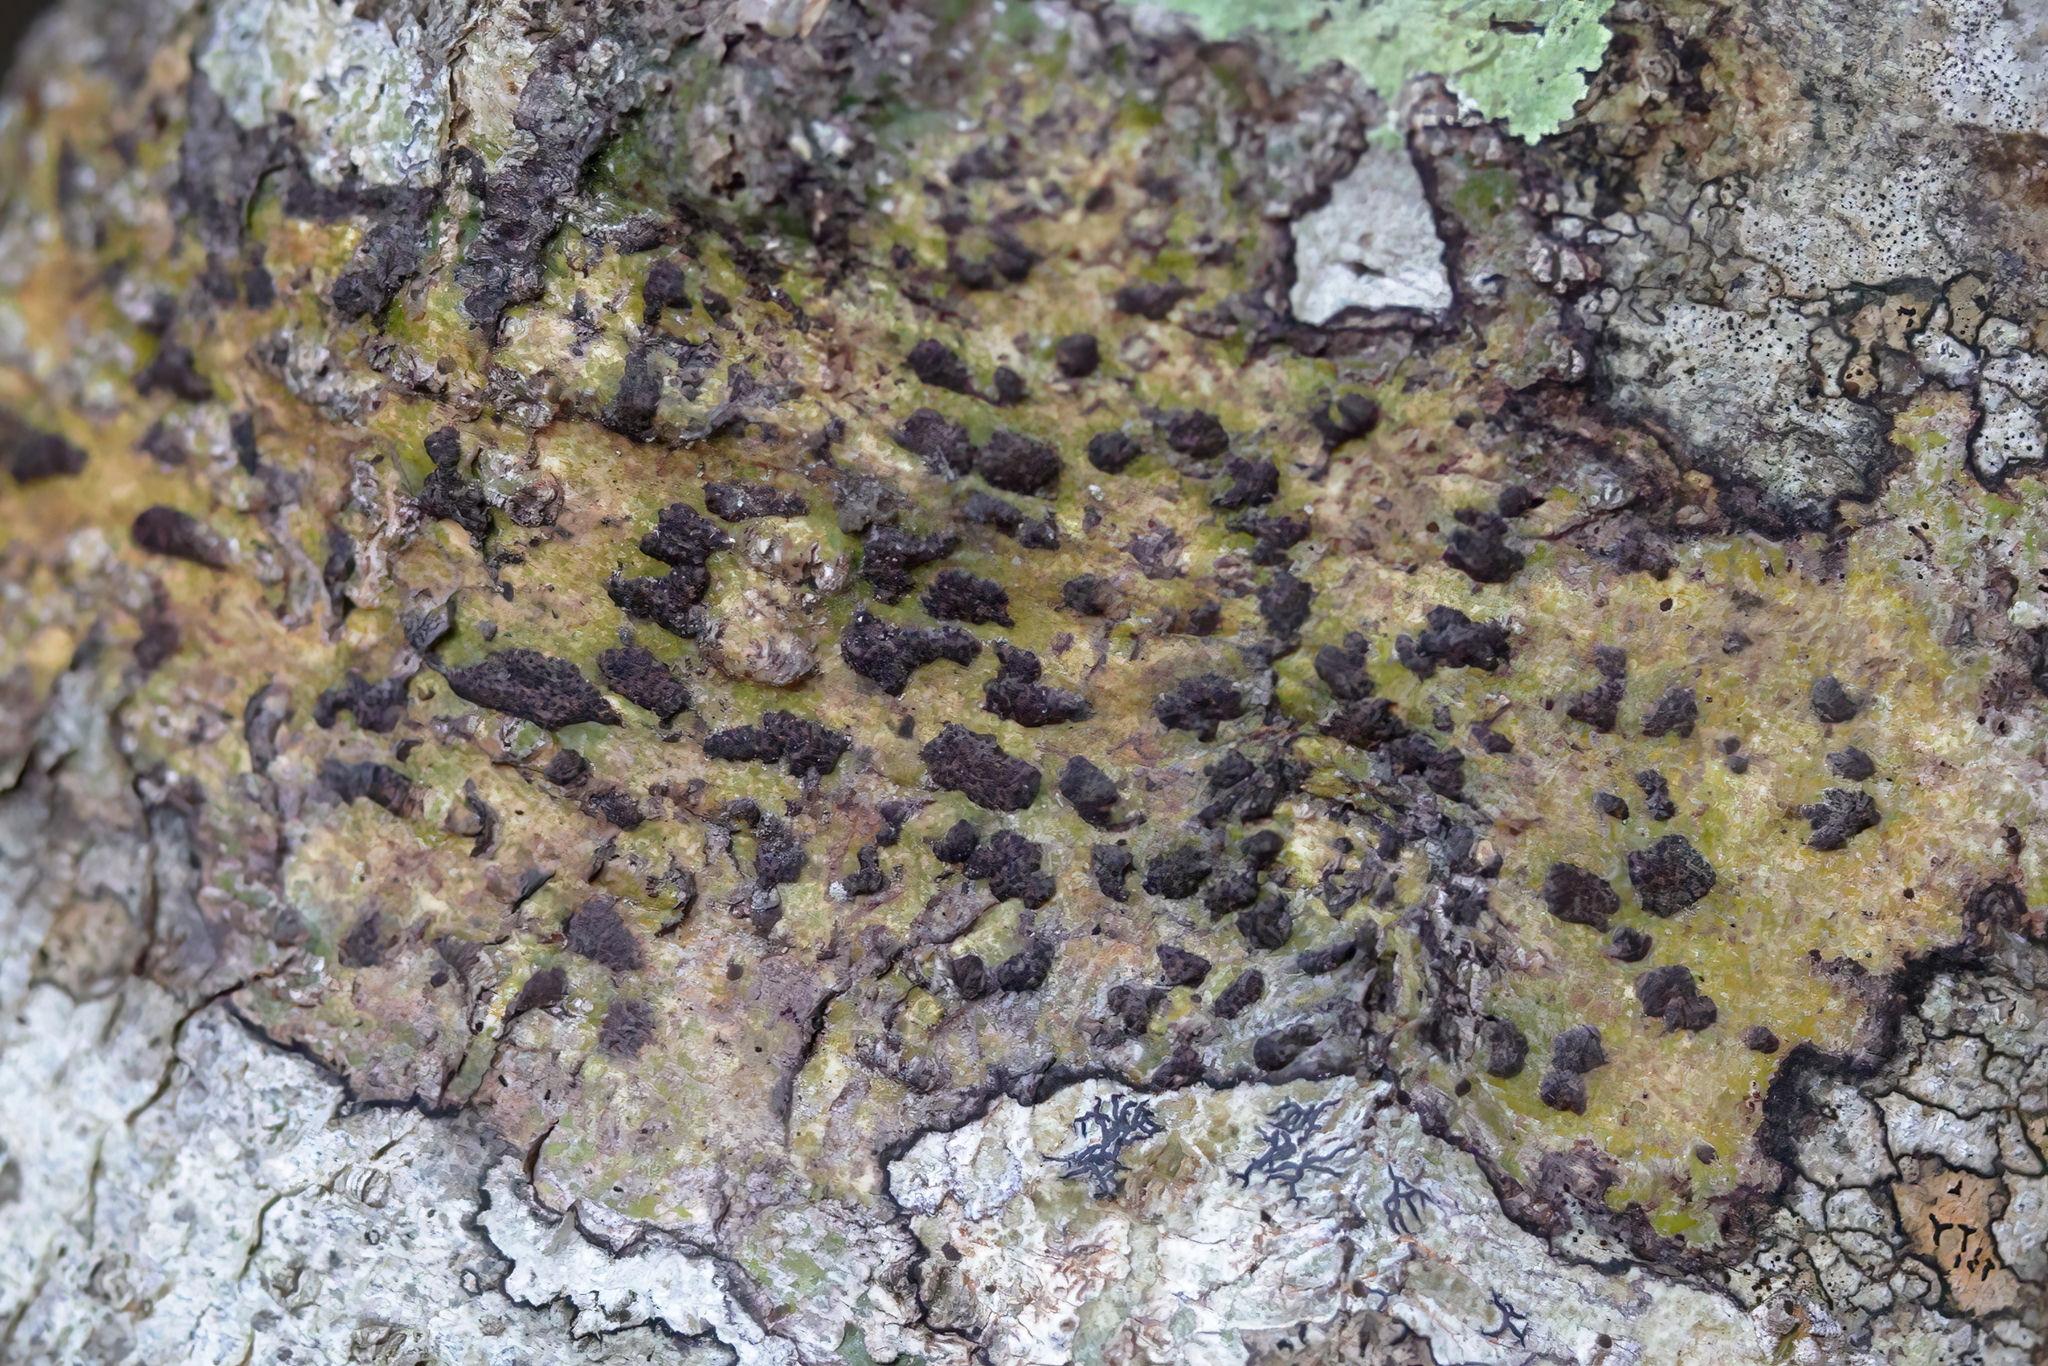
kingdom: Fungi
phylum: Ascomycota
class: Dothideomycetes
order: Trypetheliales
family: Trypetheliaceae
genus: Bathelium
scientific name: Bathelium carolinianum
